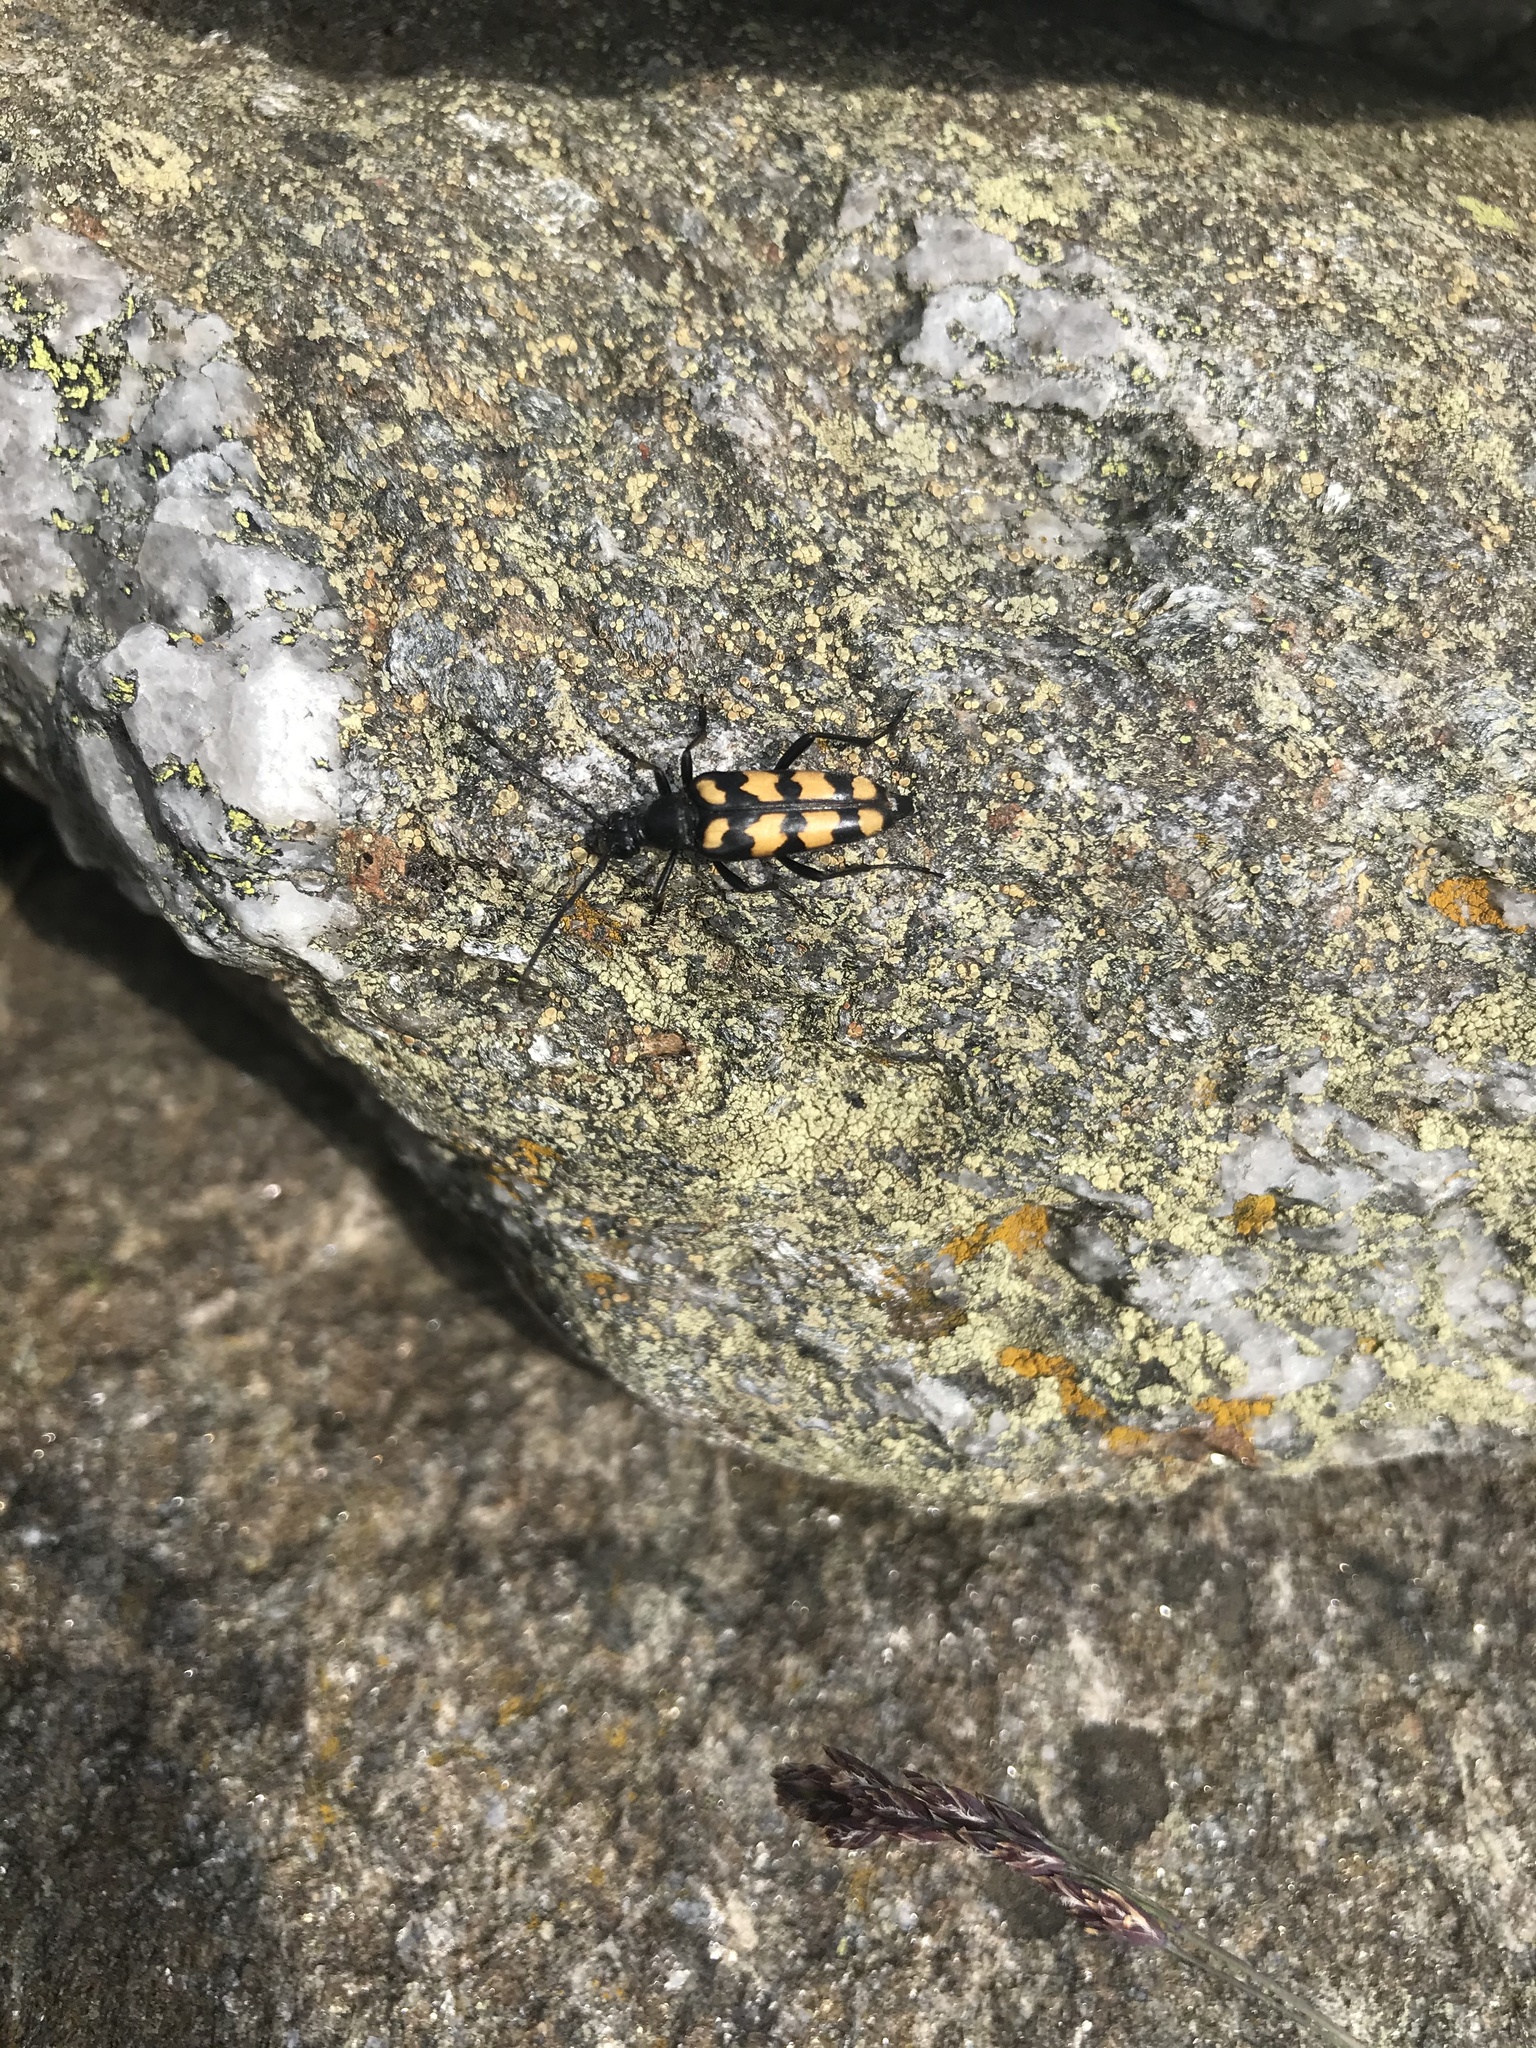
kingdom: Animalia
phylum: Arthropoda
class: Insecta
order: Coleoptera
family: Cerambycidae
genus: Leptura
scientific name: Leptura quadrifasciata
